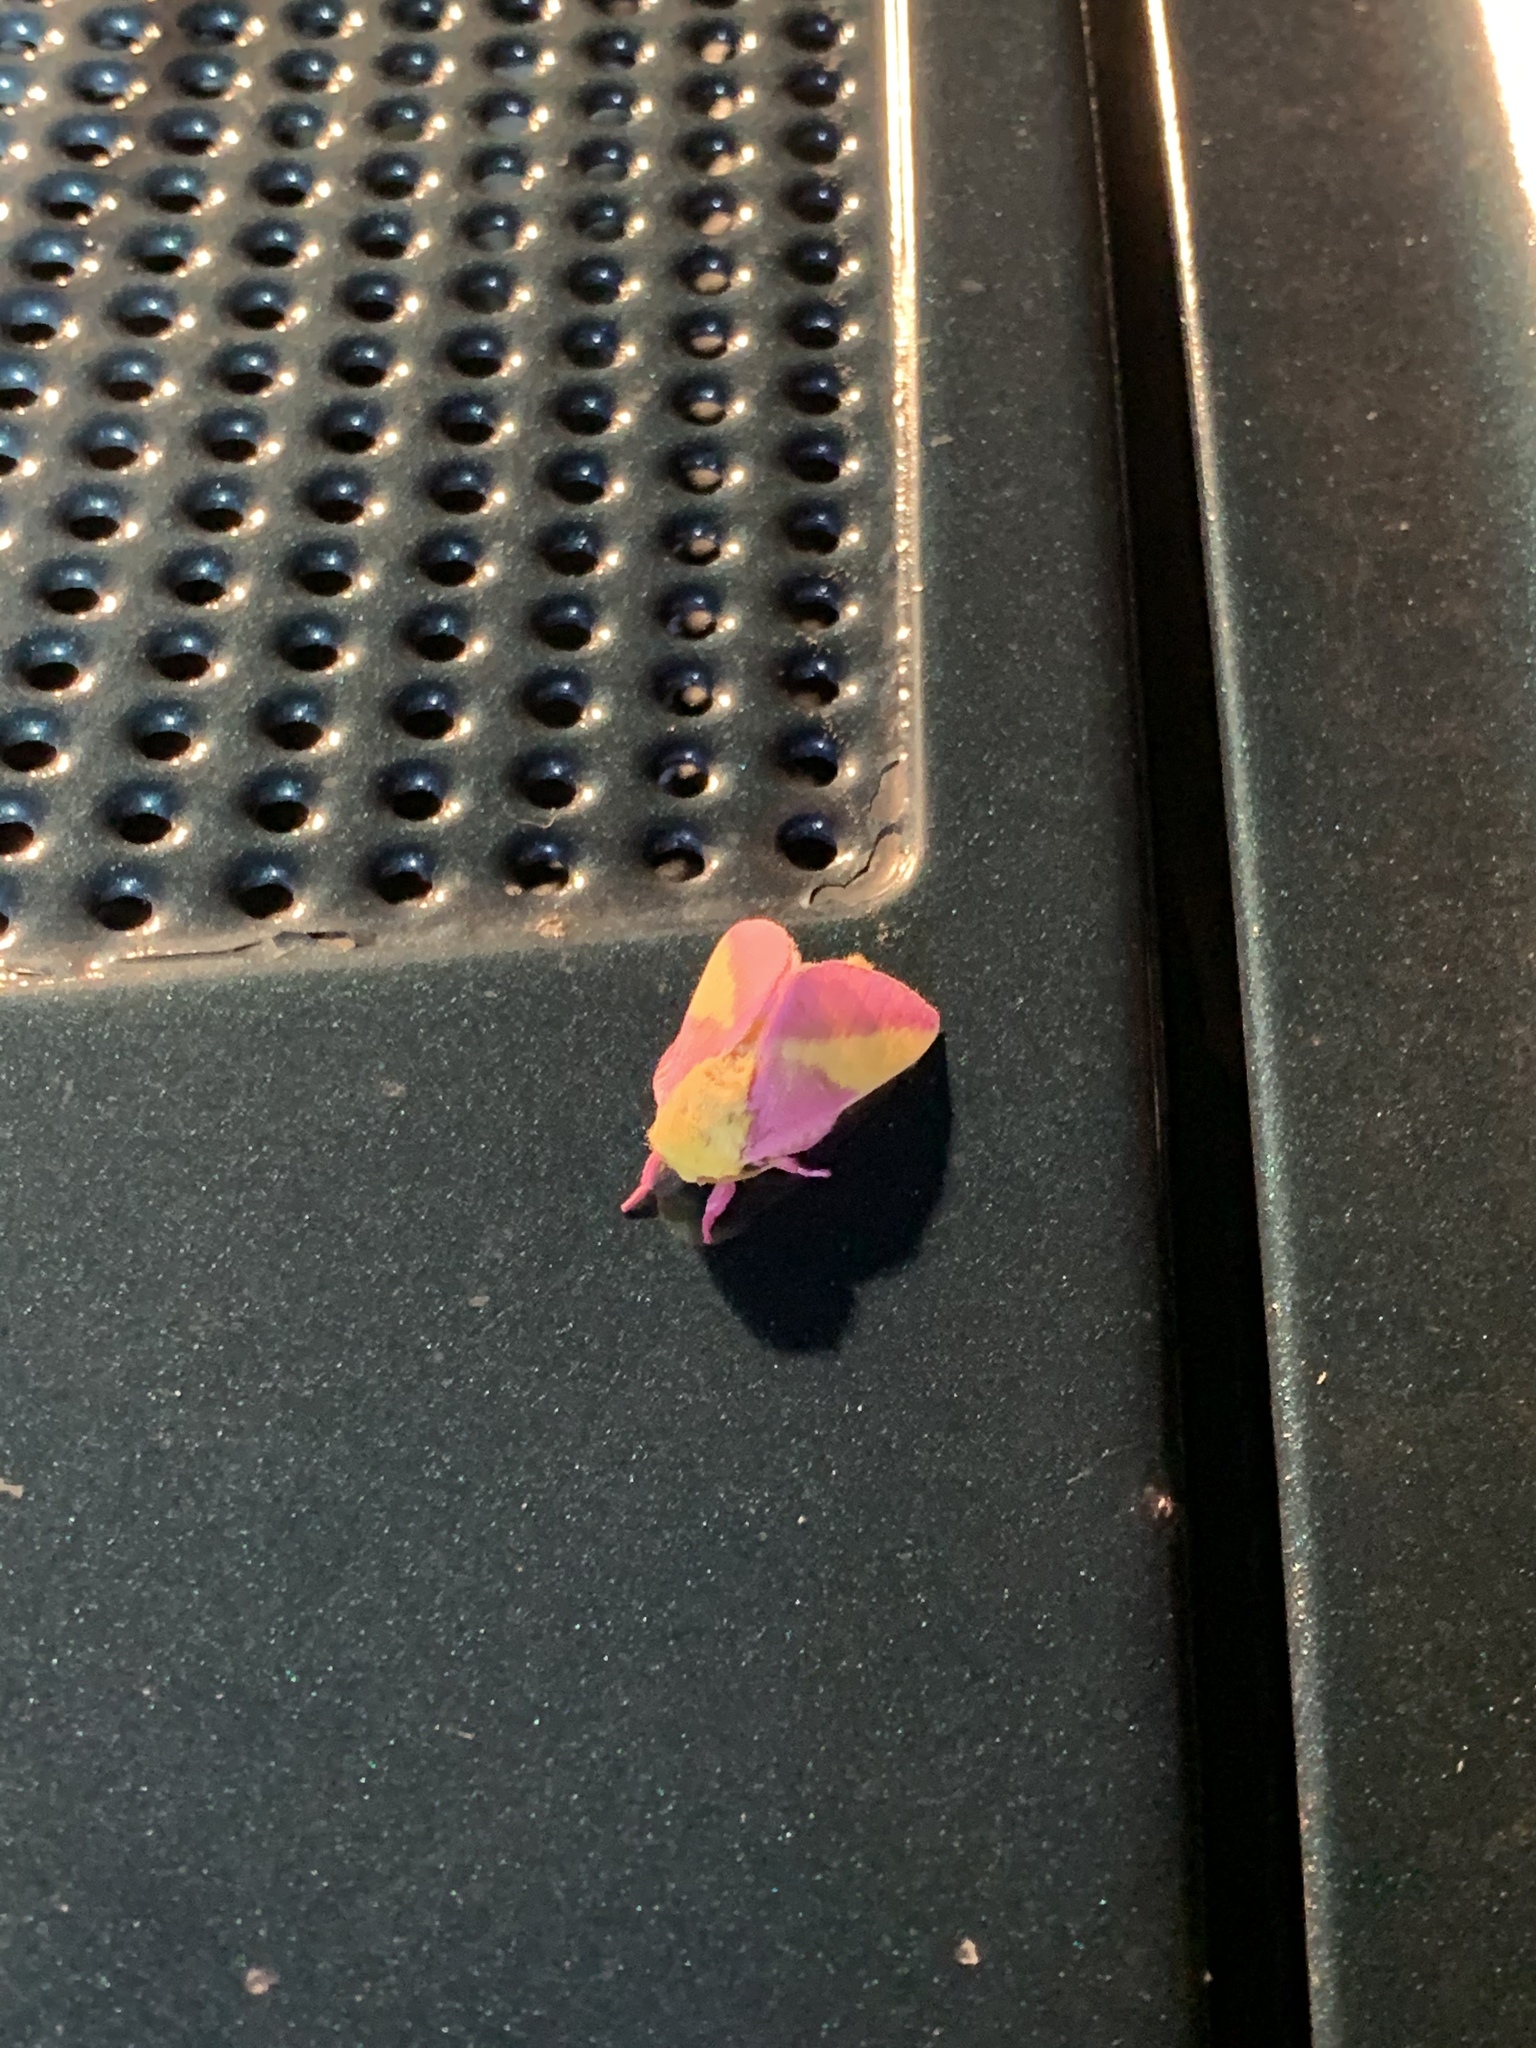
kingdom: Animalia
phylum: Arthropoda
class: Insecta
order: Lepidoptera
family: Saturniidae
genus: Dryocampa
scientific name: Dryocampa rubicunda
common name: Rosy maple moth
